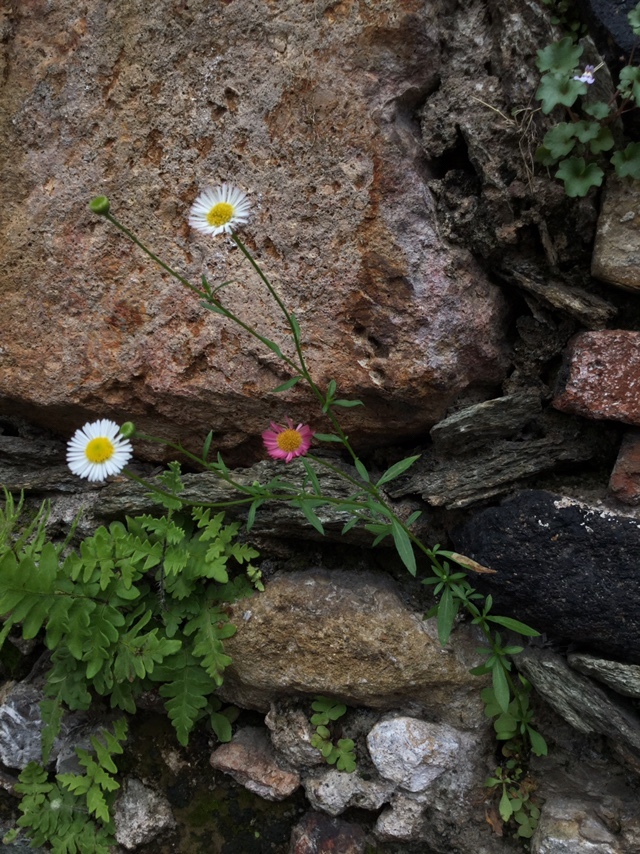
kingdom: Plantae
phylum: Tracheophyta
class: Magnoliopsida
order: Asterales
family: Asteraceae
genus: Erigeron
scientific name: Erigeron karvinskianus
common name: Mexican fleabane
